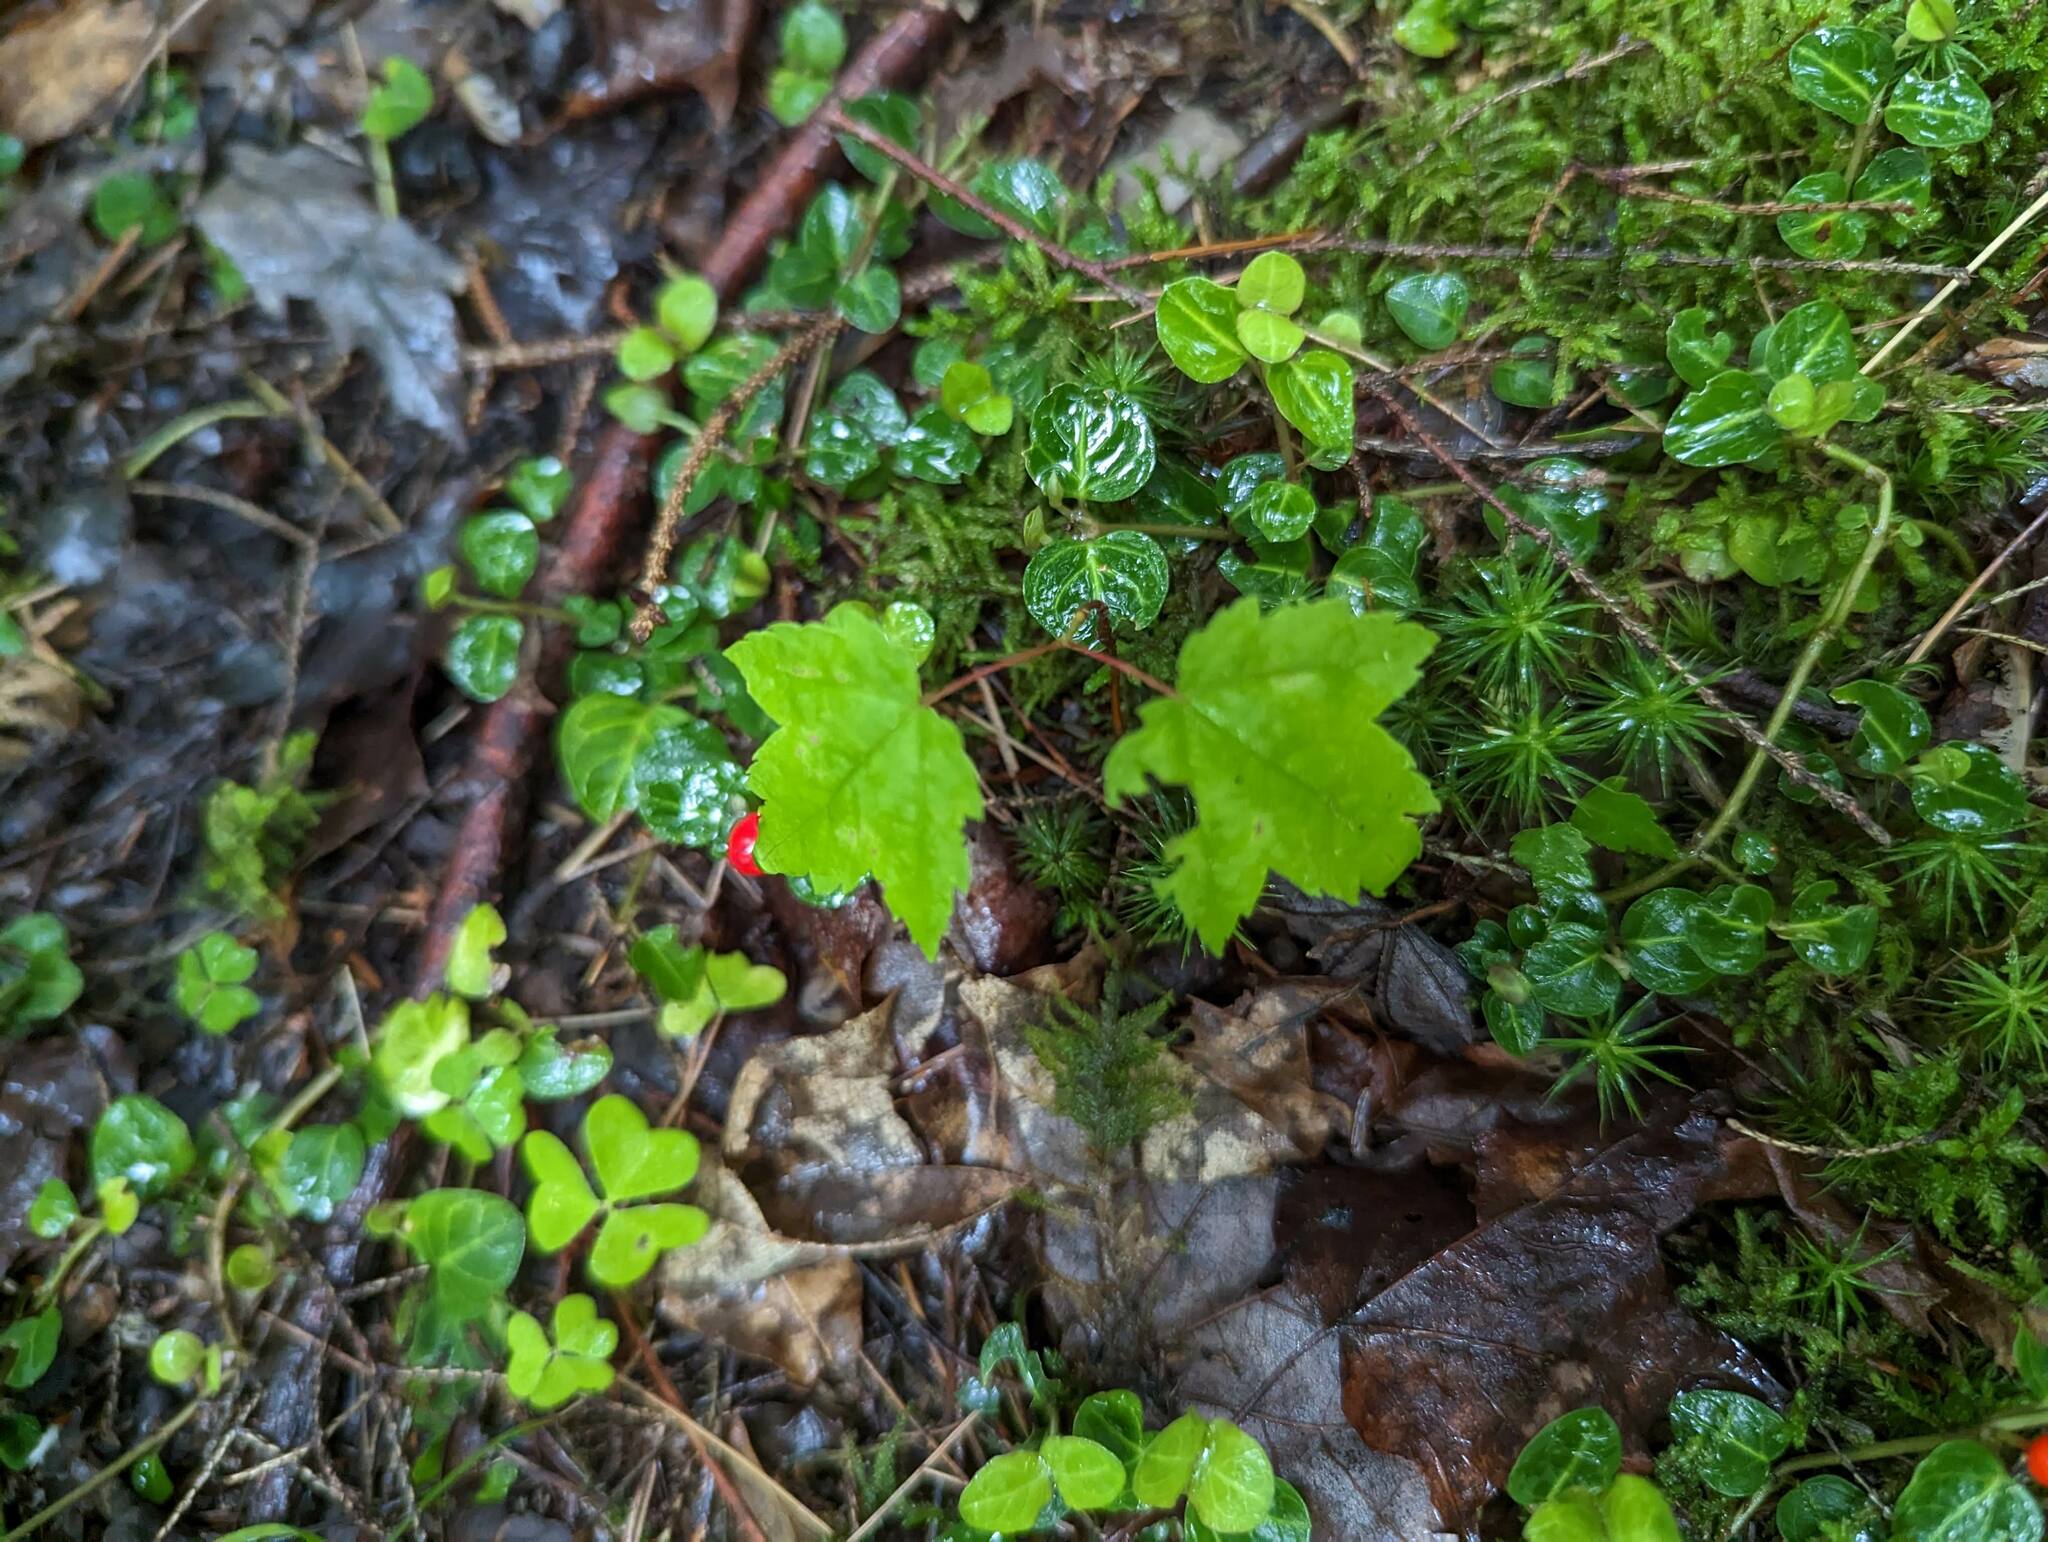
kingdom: Plantae
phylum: Tracheophyta
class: Magnoliopsida
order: Sapindales
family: Sapindaceae
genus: Acer
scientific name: Acer rubrum
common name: Red maple
